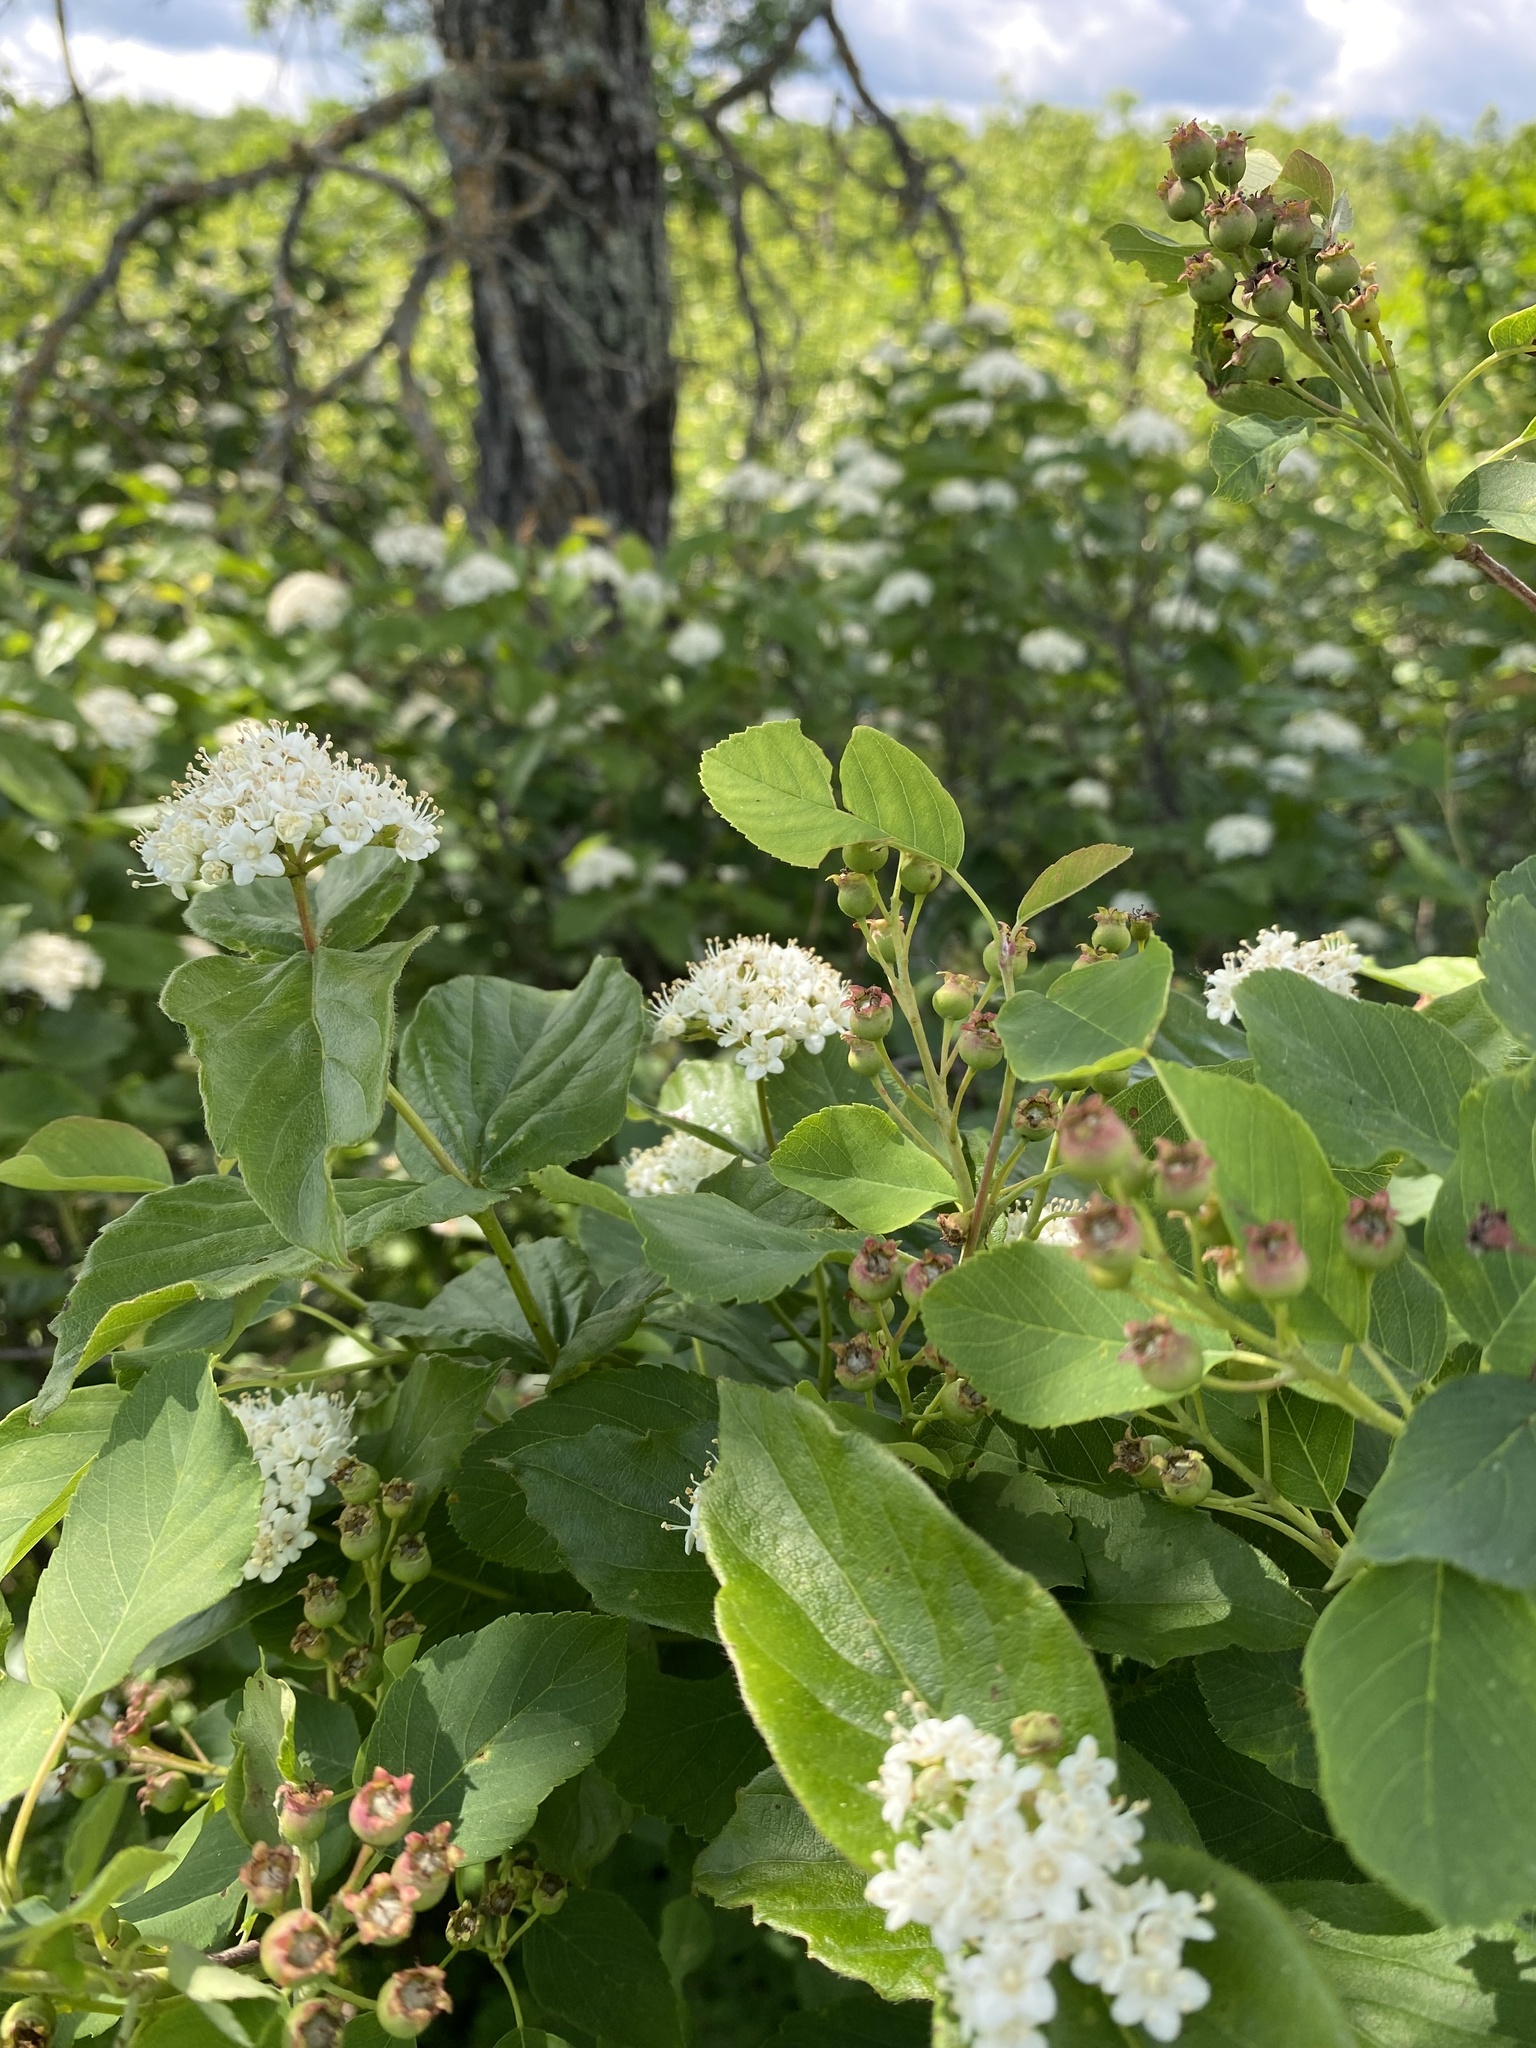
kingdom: Plantae
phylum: Tracheophyta
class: Magnoliopsida
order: Dipsacales
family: Viburnaceae
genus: Viburnum
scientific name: Viburnum rafinesqueanum
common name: Downy arrow-wood
